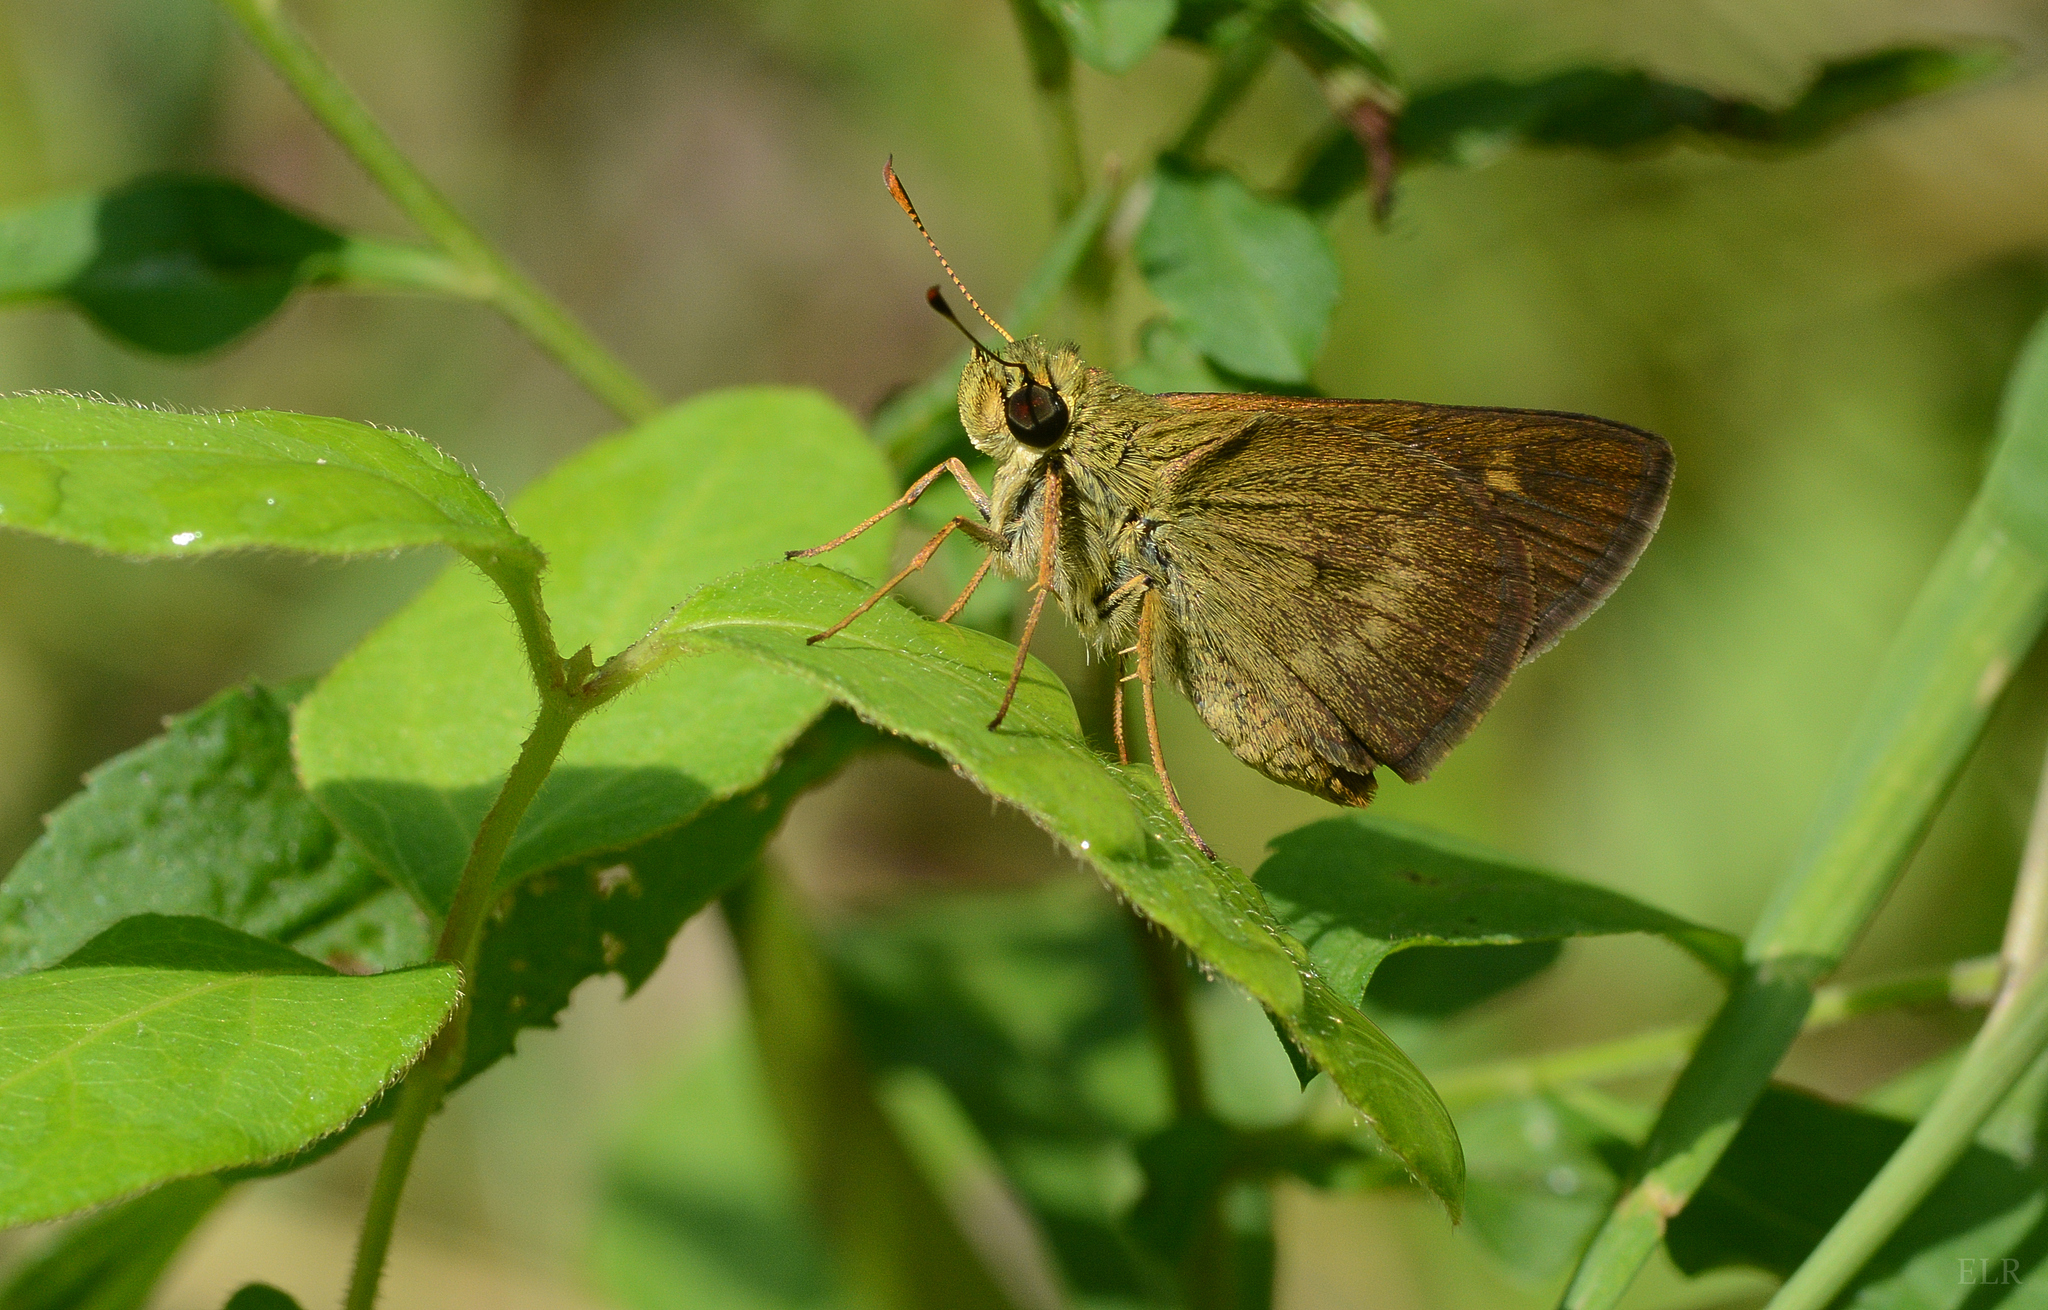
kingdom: Animalia
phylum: Arthropoda
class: Insecta
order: Lepidoptera
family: Hesperiidae
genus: Polites
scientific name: Polites egeremet
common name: Northern broken-dash
